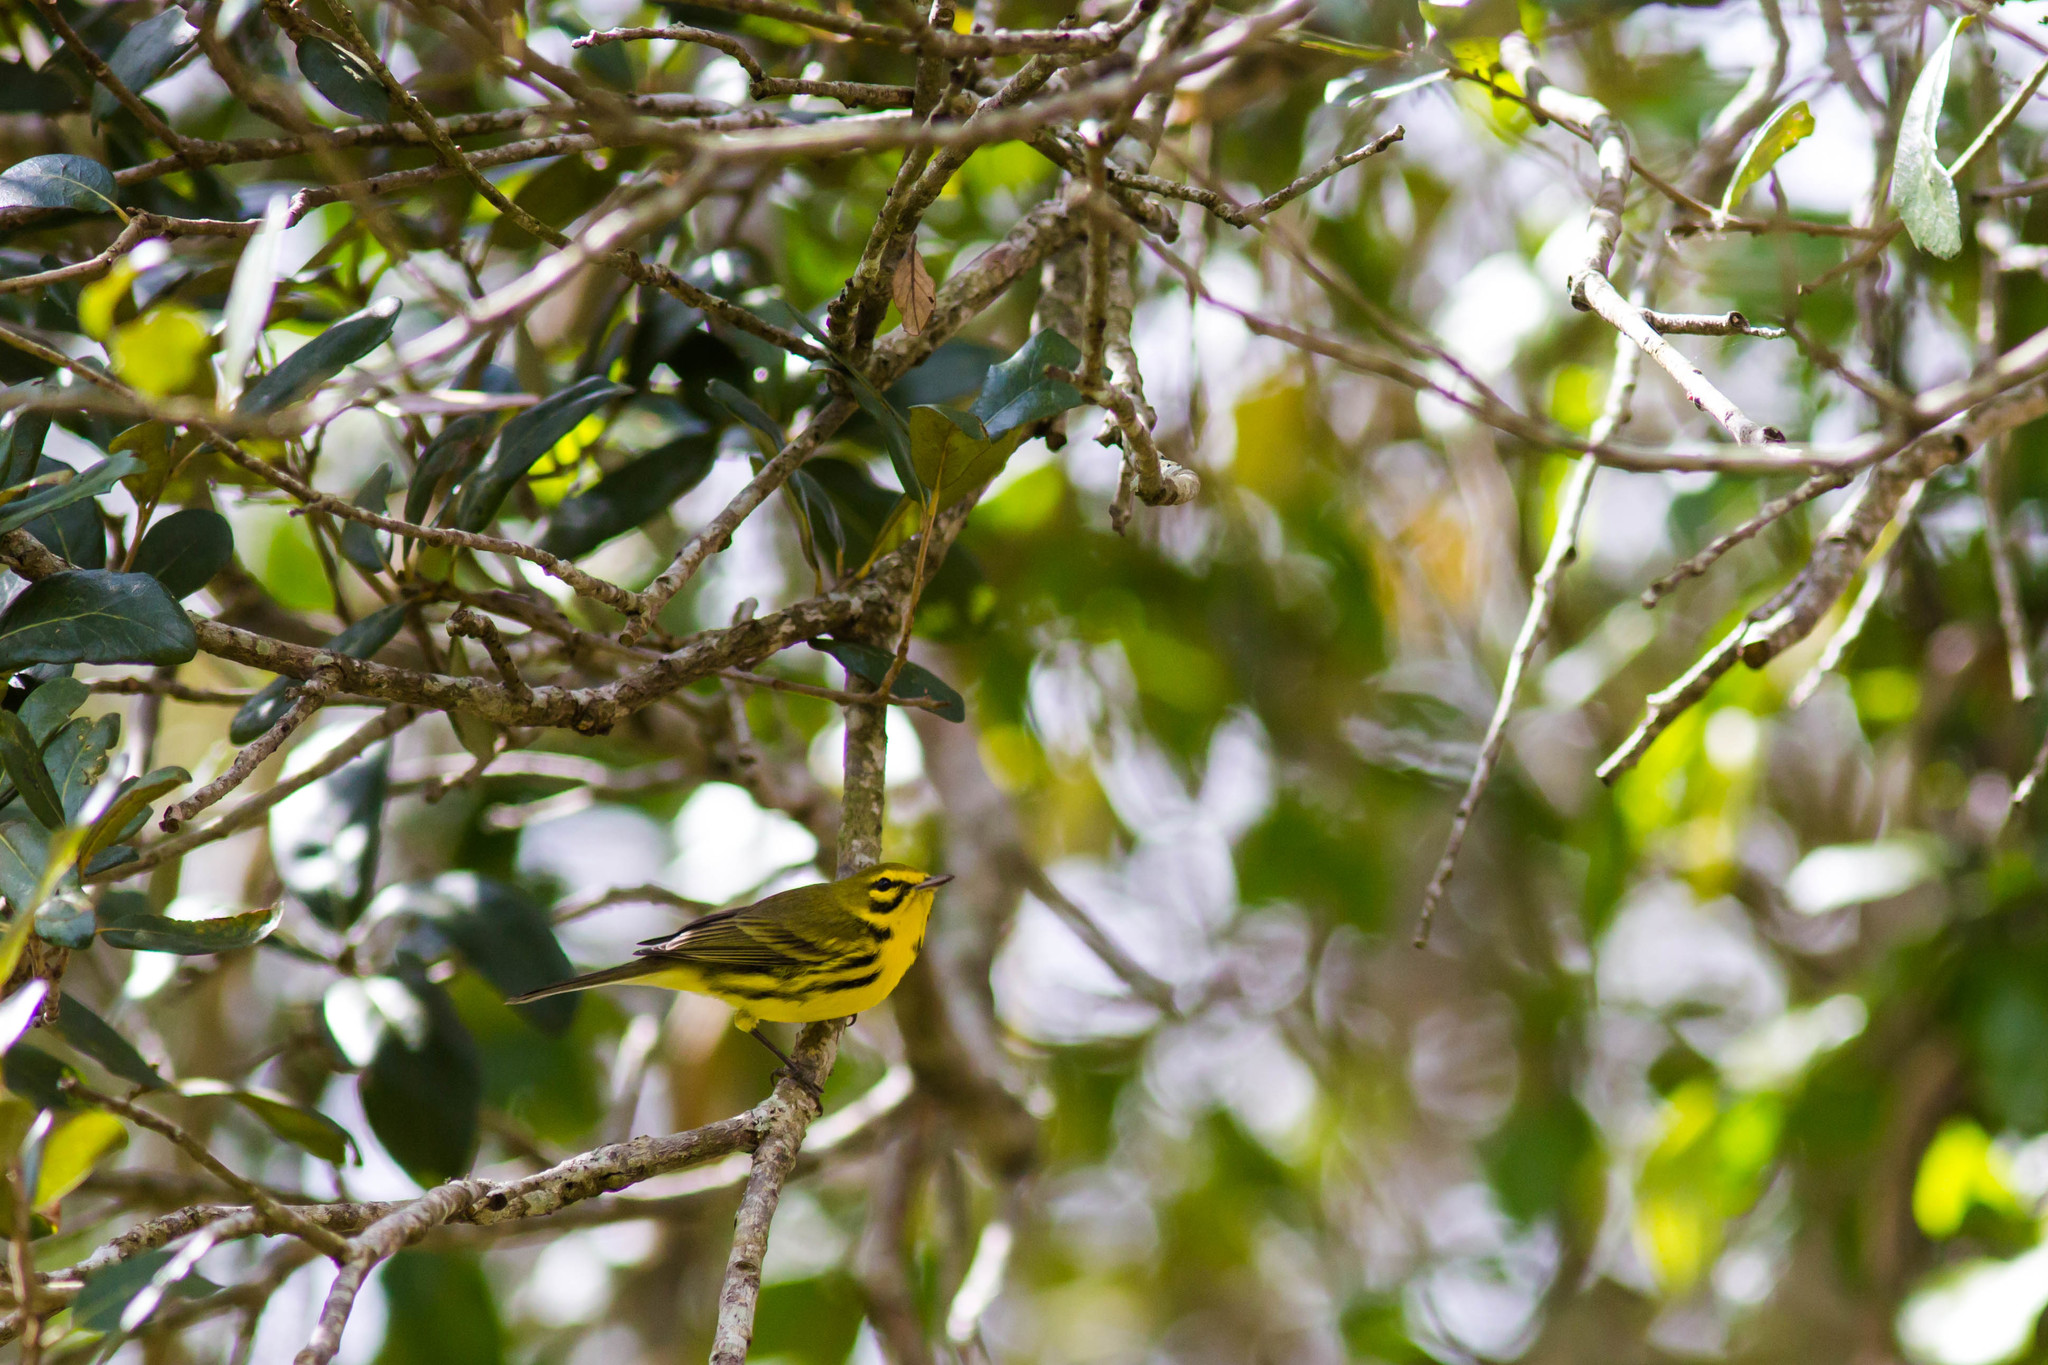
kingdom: Animalia
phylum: Chordata
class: Aves
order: Passeriformes
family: Parulidae
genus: Setophaga
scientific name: Setophaga discolor
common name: Prairie warbler
